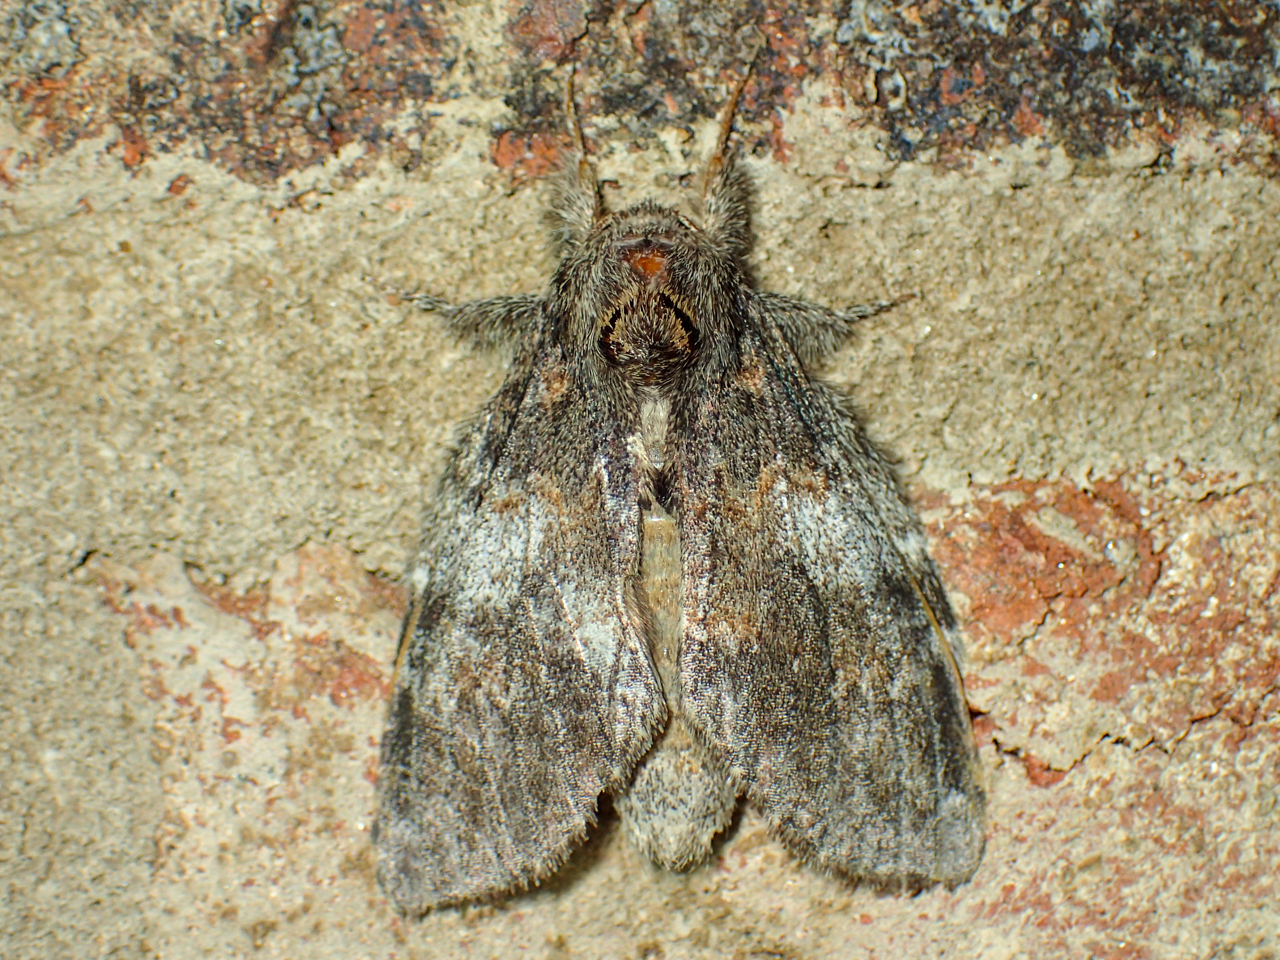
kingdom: Animalia
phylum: Arthropoda
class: Insecta
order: Lepidoptera
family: Notodontidae
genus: Peridea
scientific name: Peridea angulosa
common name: Angulose prominent
